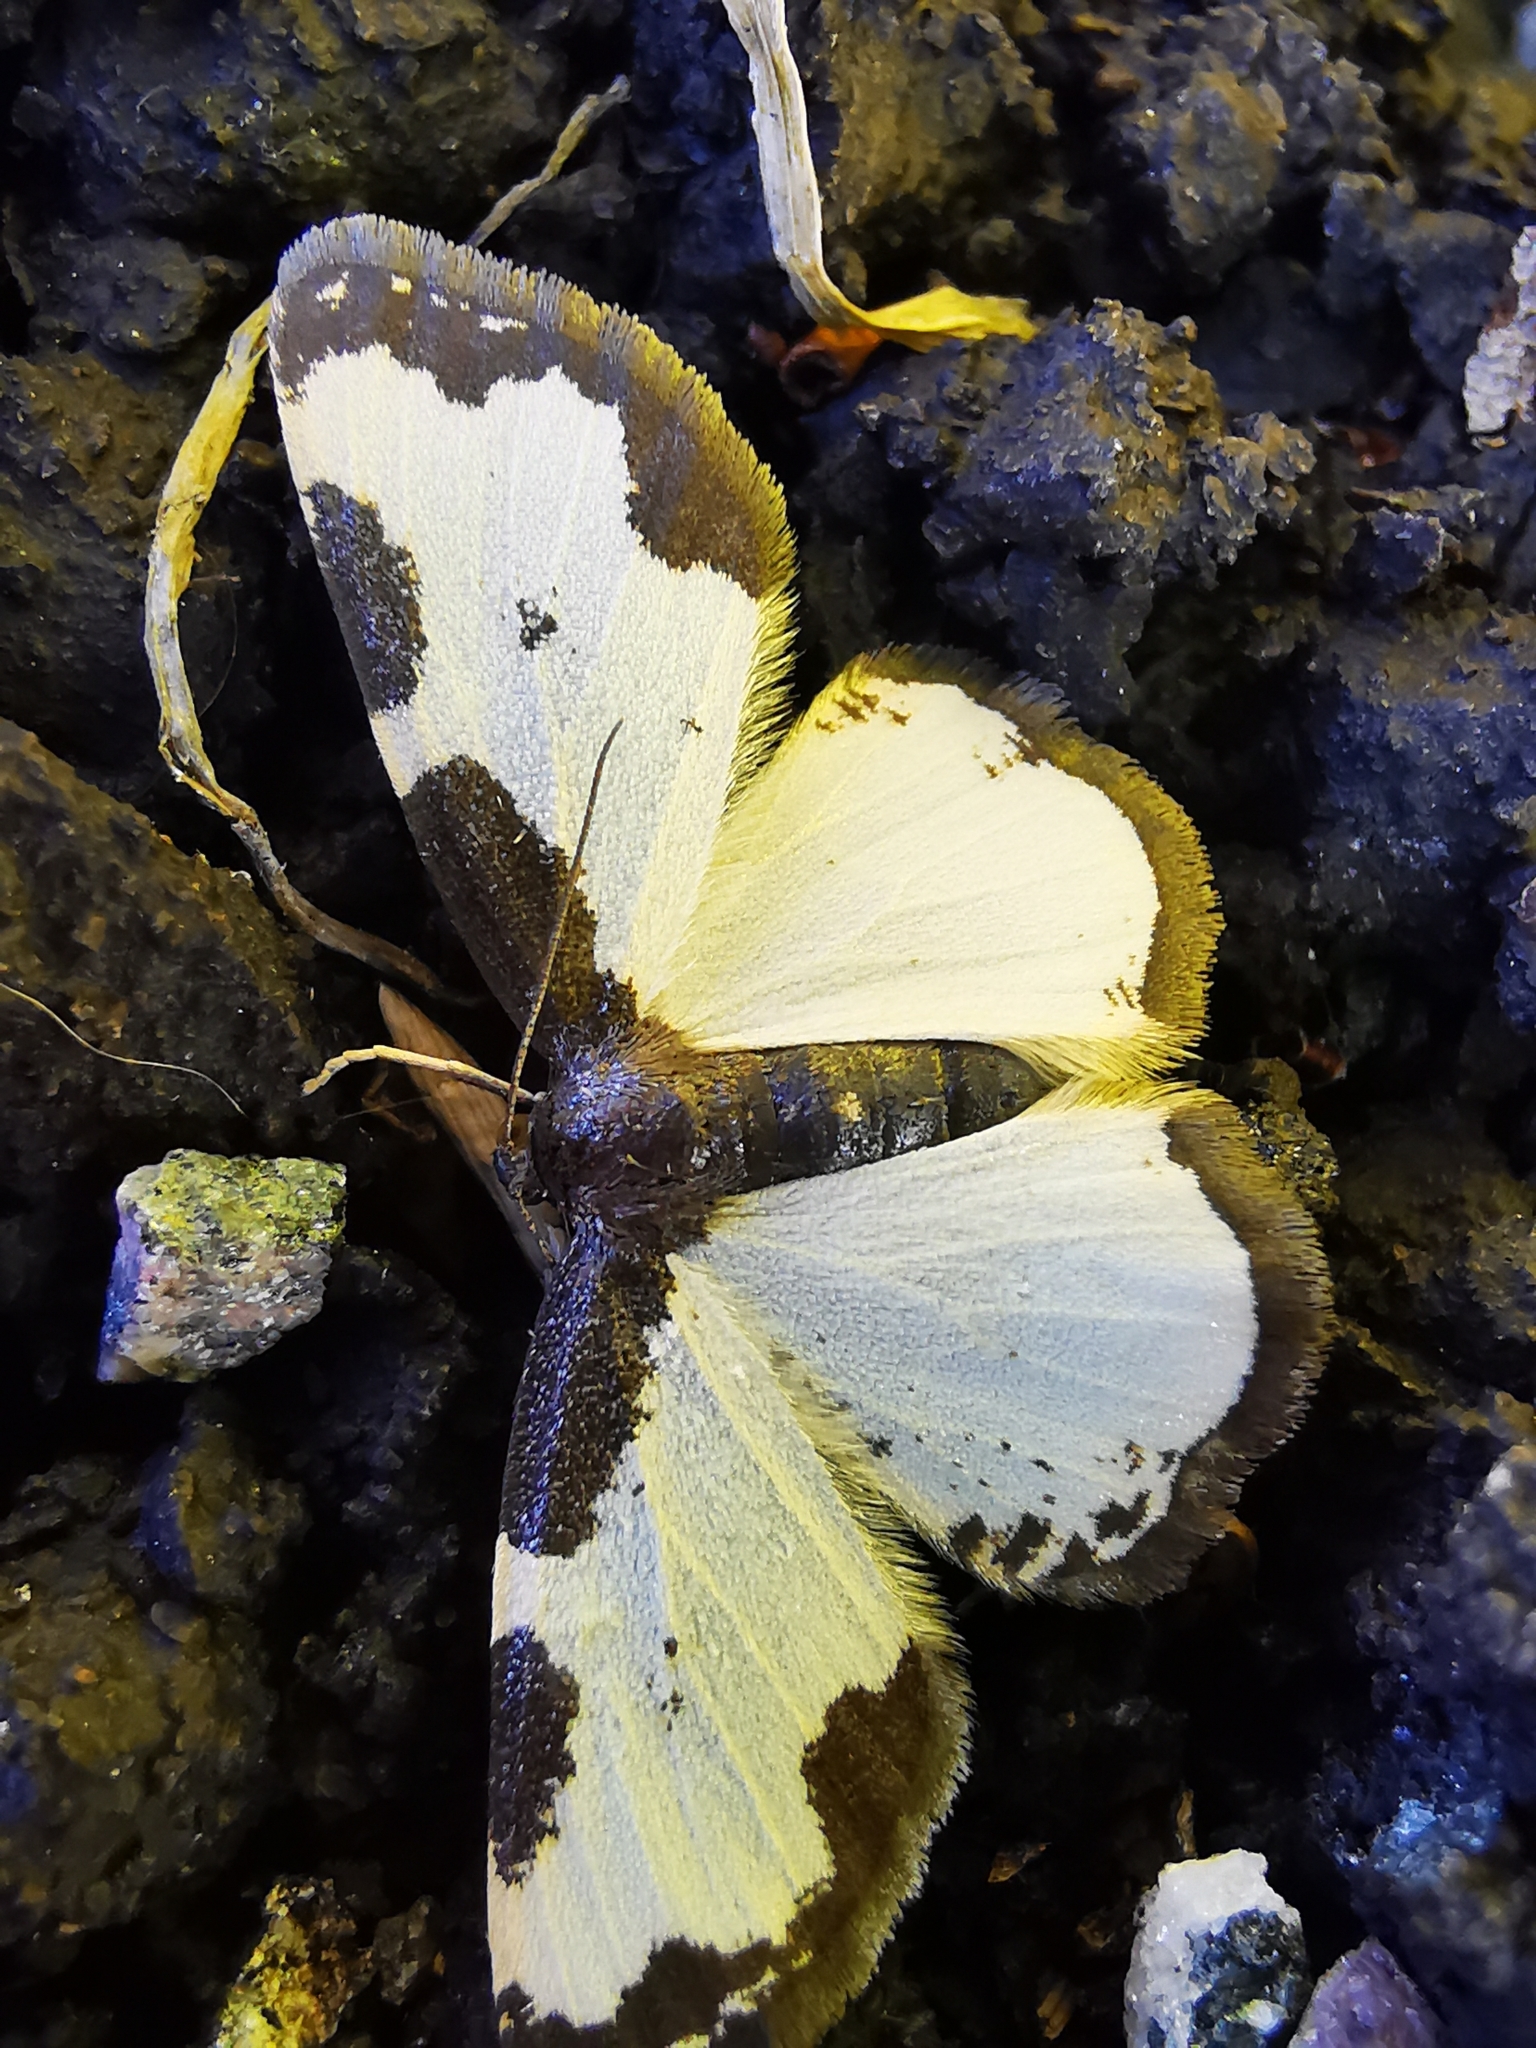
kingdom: Animalia
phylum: Arthropoda
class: Insecta
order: Lepidoptera
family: Geometridae
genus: Lomaspilis
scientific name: Lomaspilis marginata
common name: Clouded border
